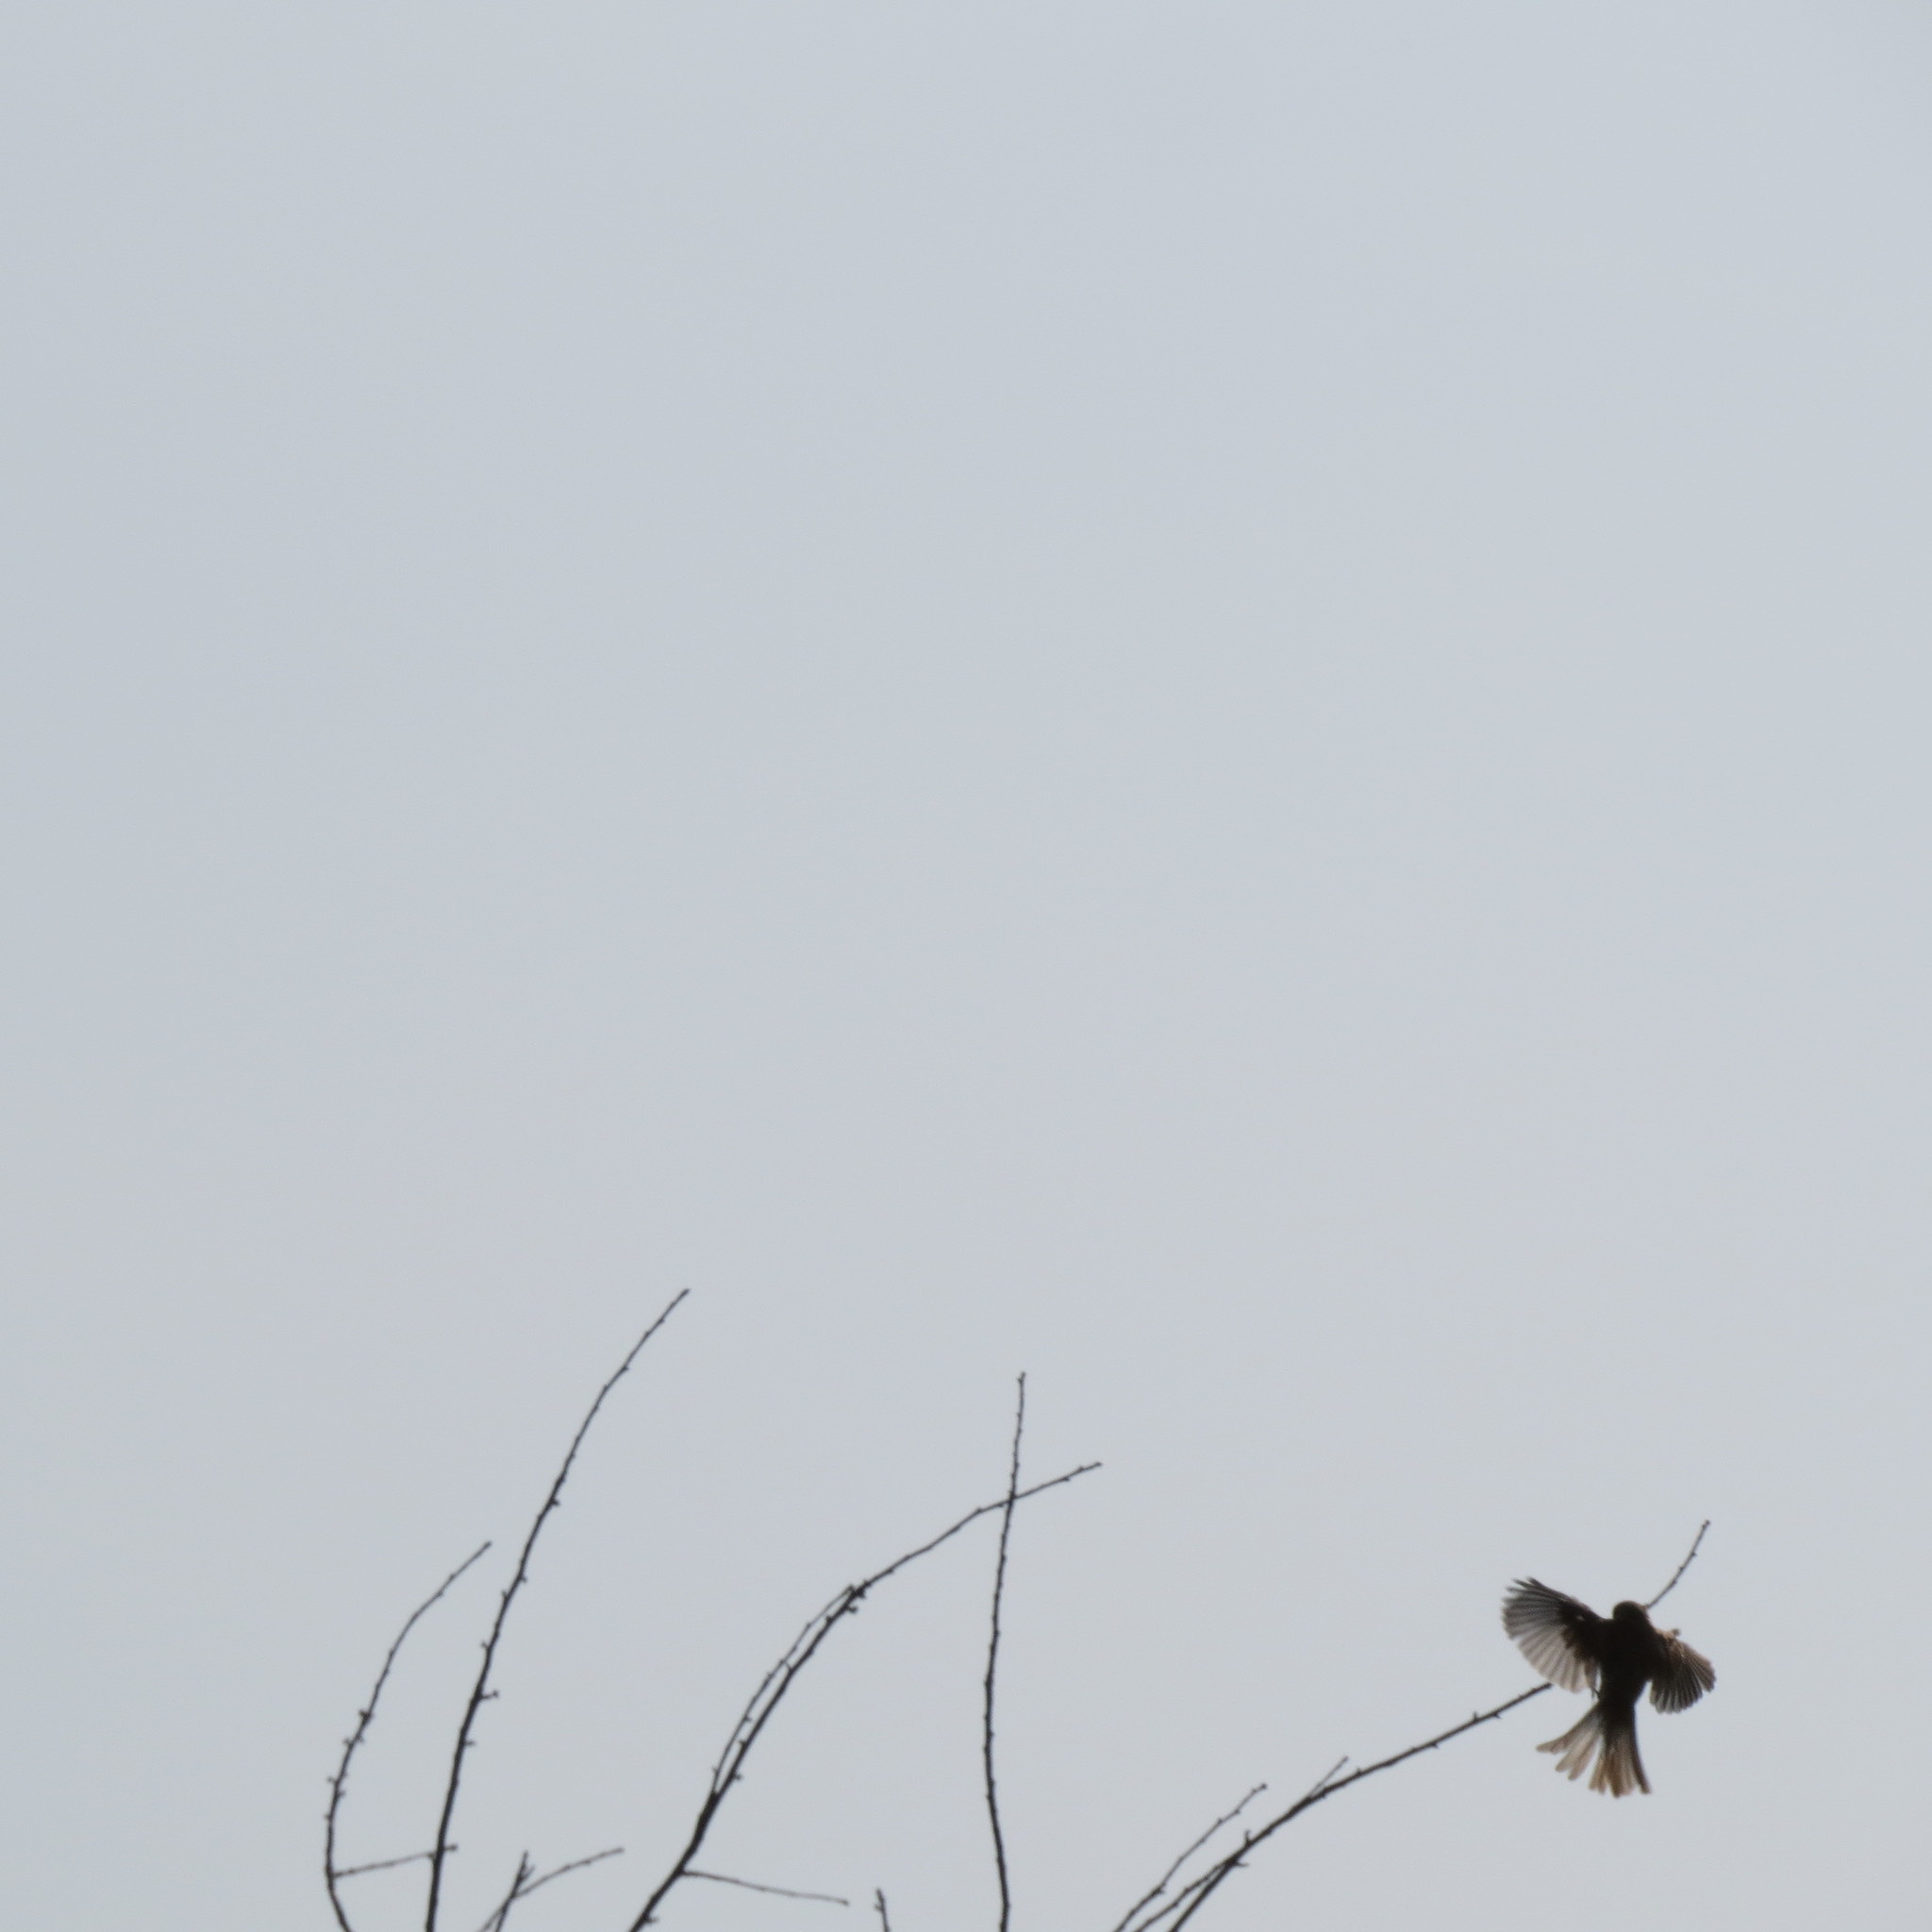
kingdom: Animalia
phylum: Chordata
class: Aves
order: Passeriformes
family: Laniidae
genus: Lanius
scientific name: Lanius collurio
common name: Red-backed shrike
